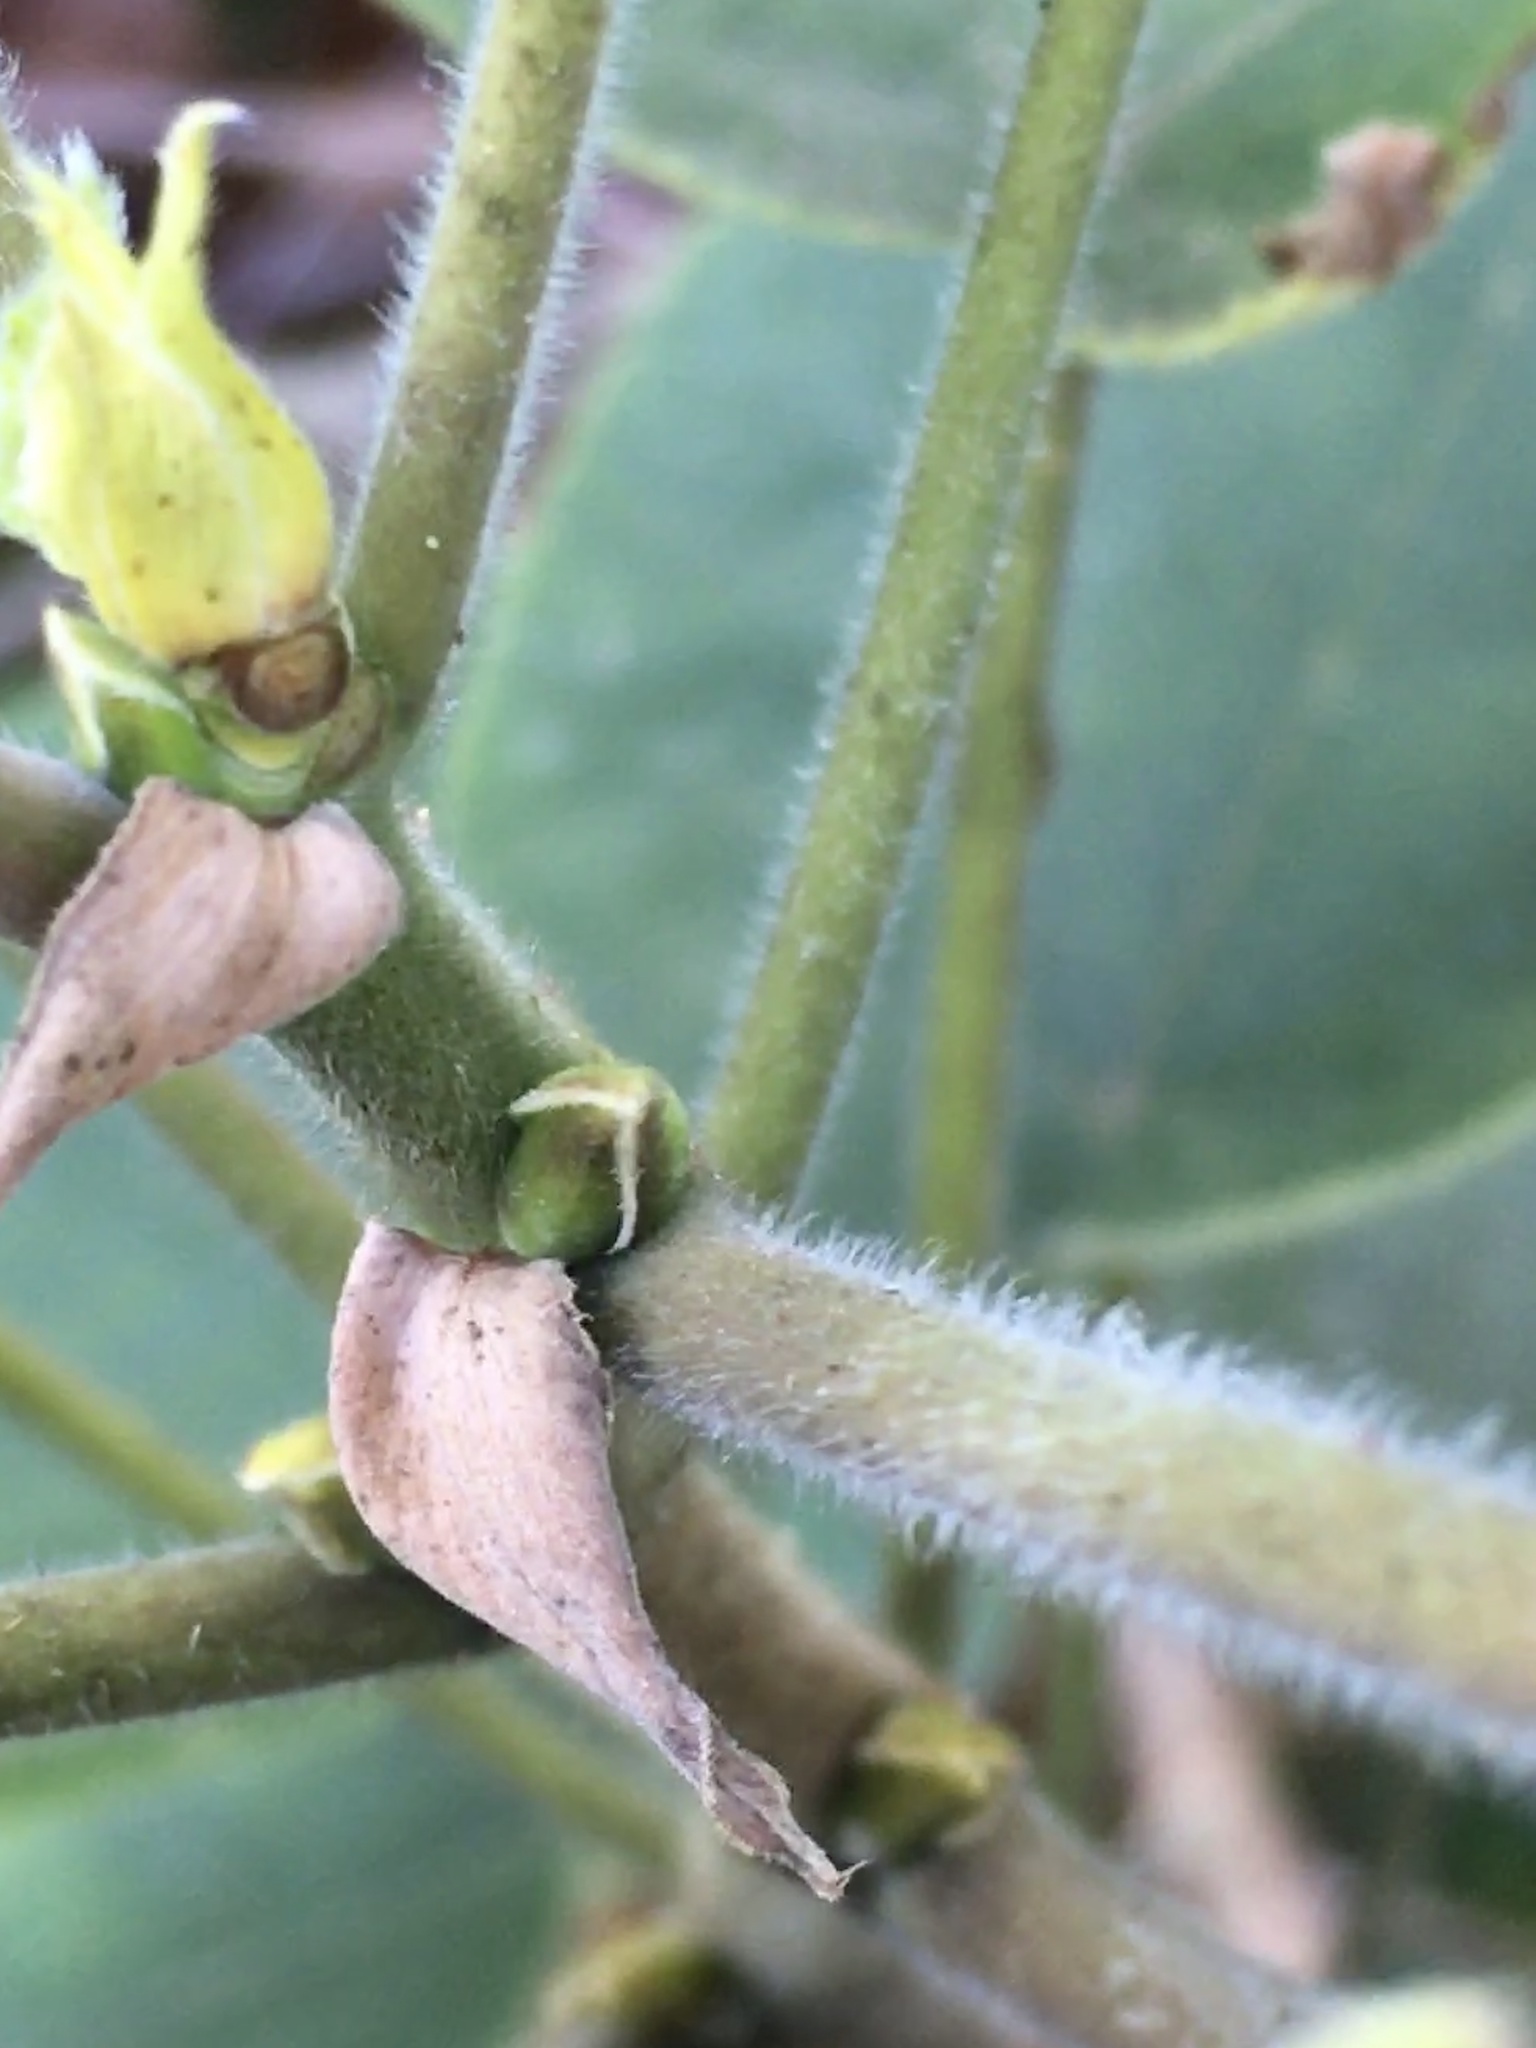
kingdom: Plantae
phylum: Tracheophyta
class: Magnoliopsida
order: Rosales
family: Moraceae
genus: Broussonetia
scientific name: Broussonetia papyrifera
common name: Paper mulberry
